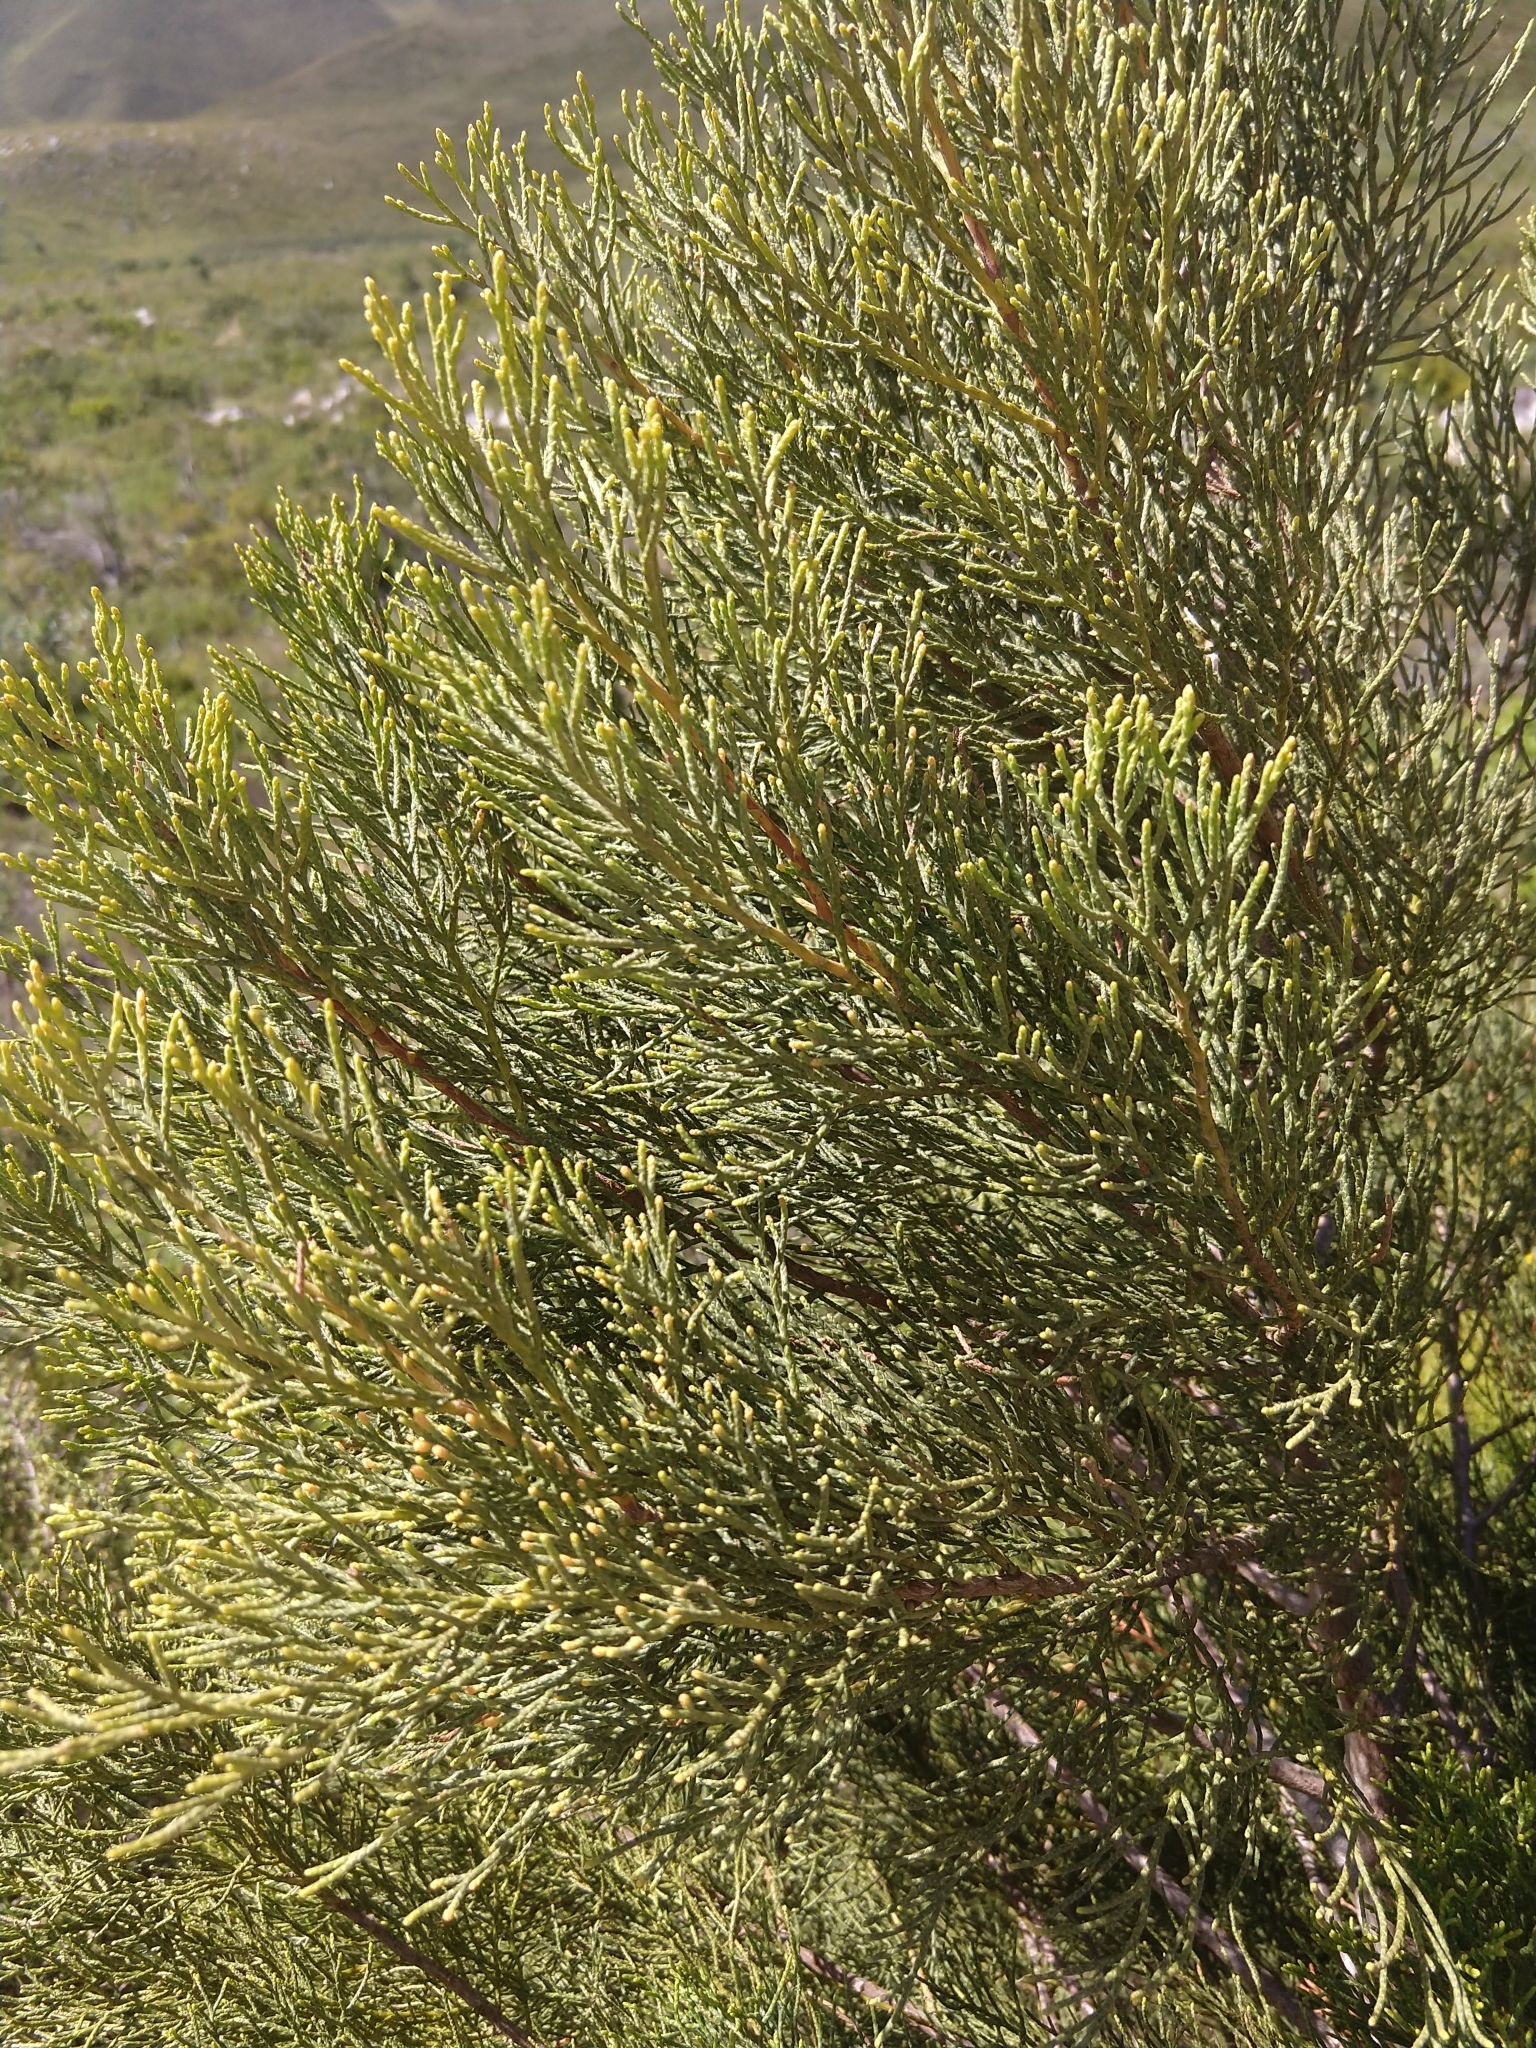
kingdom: Plantae
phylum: Tracheophyta
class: Pinopsida
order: Pinales
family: Cupressaceae
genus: Widdringtonia
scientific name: Widdringtonia nodiflora
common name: Cape cypress
